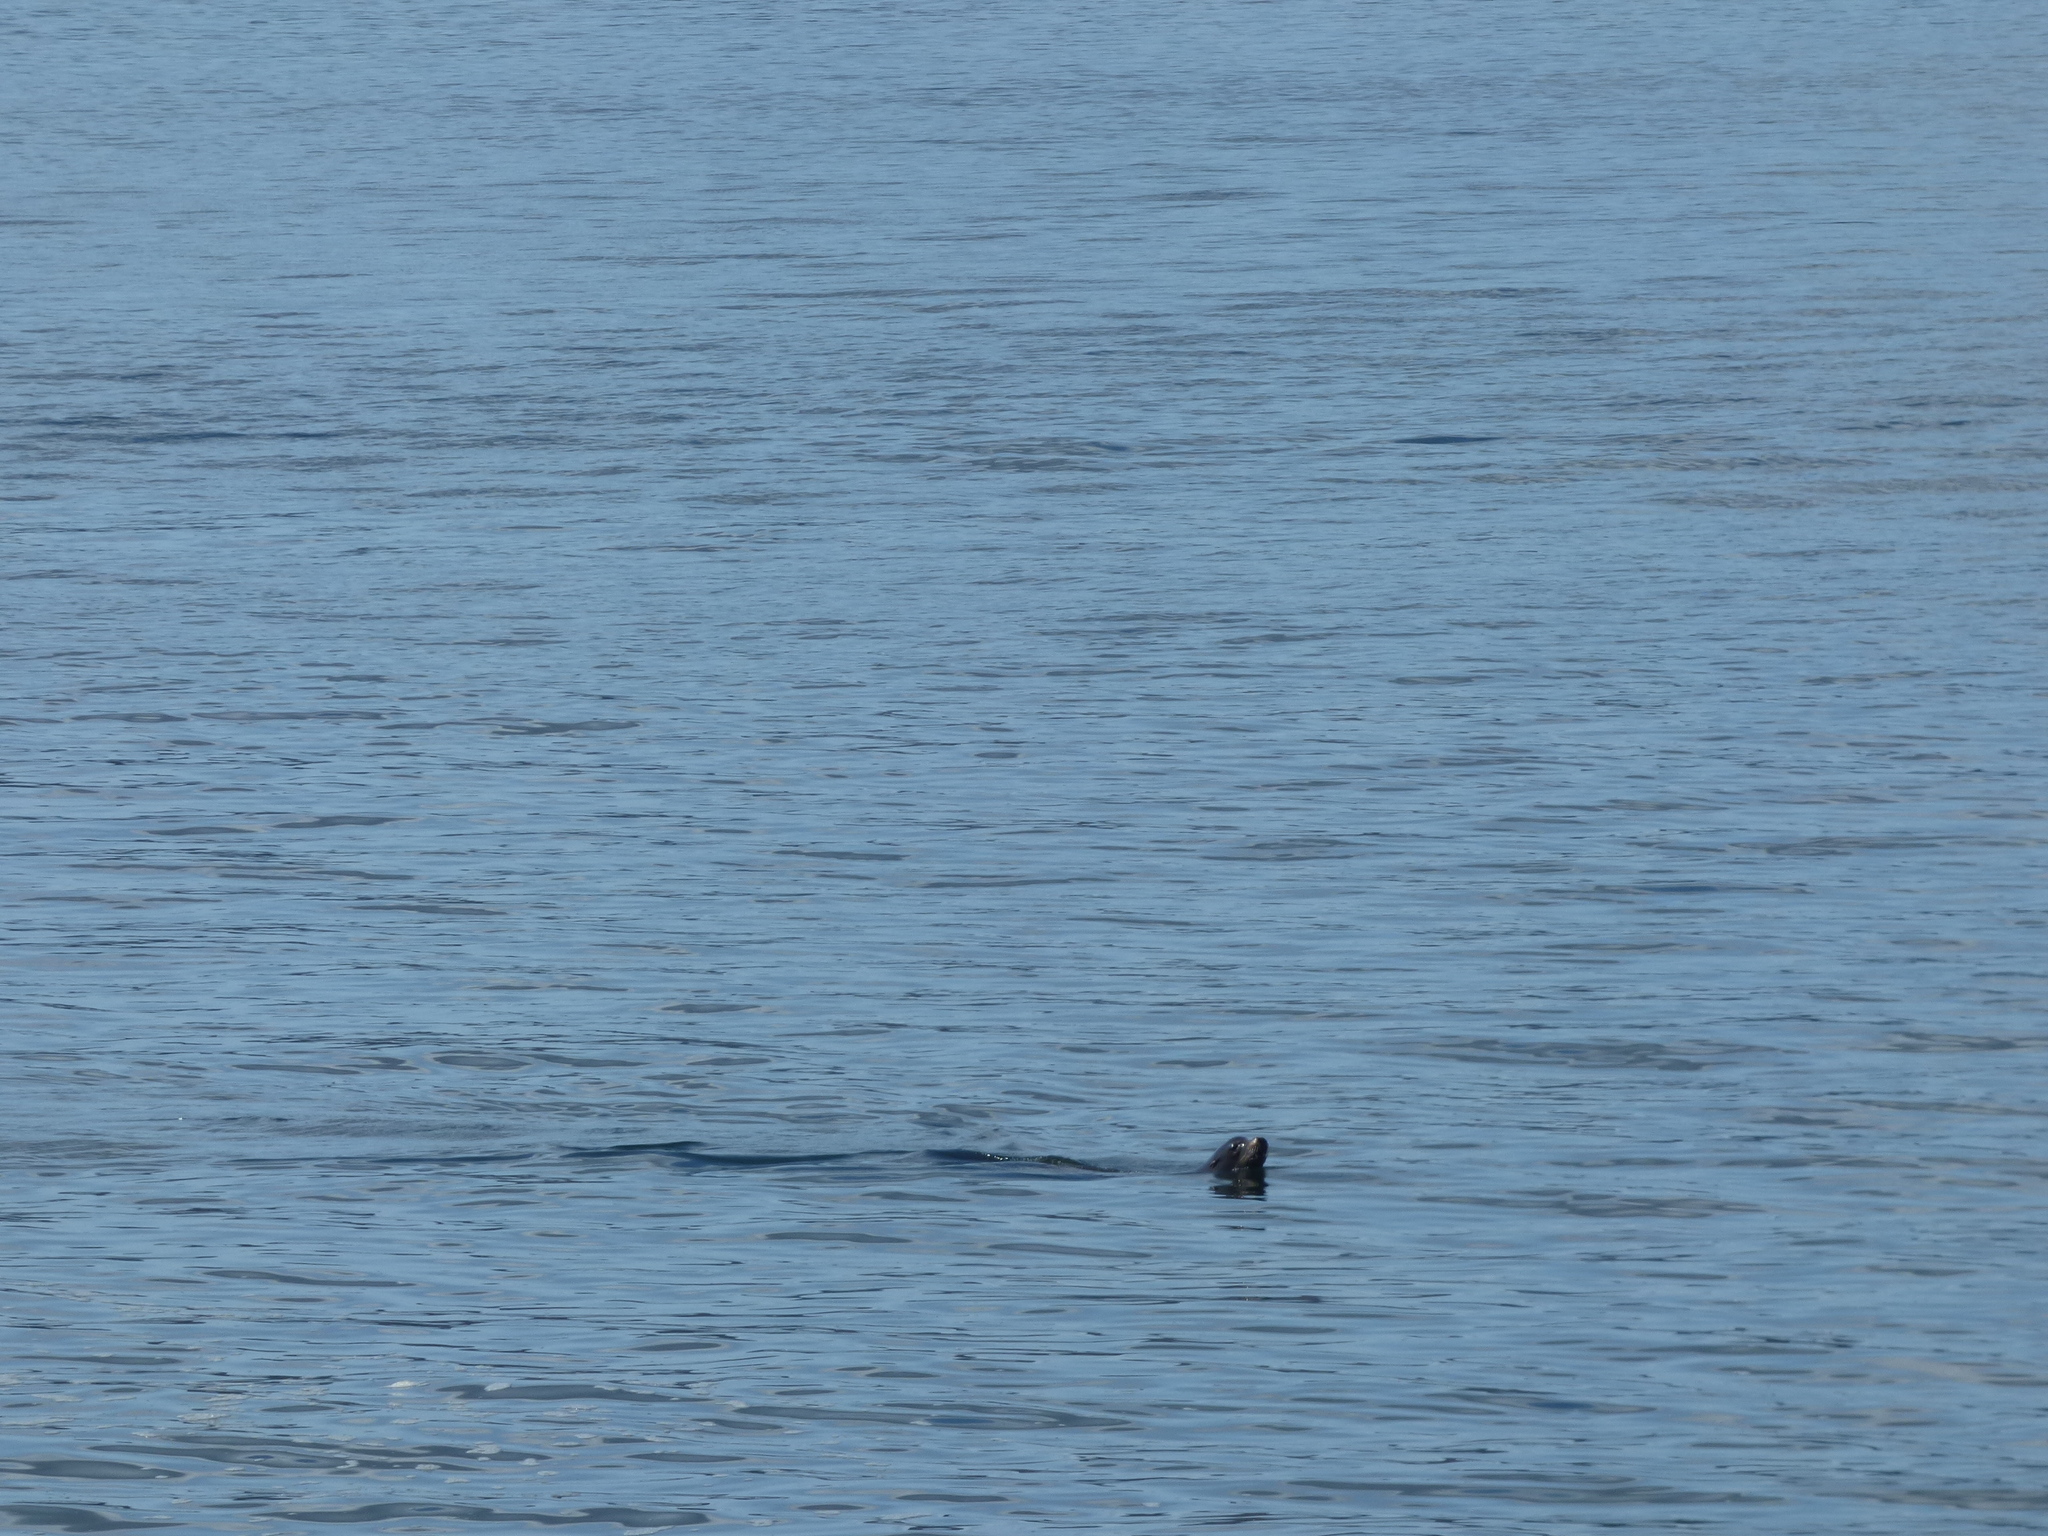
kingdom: Animalia
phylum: Chordata
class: Mammalia
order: Carnivora
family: Otariidae
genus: Zalophus
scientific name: Zalophus californianus
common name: California sea lion
